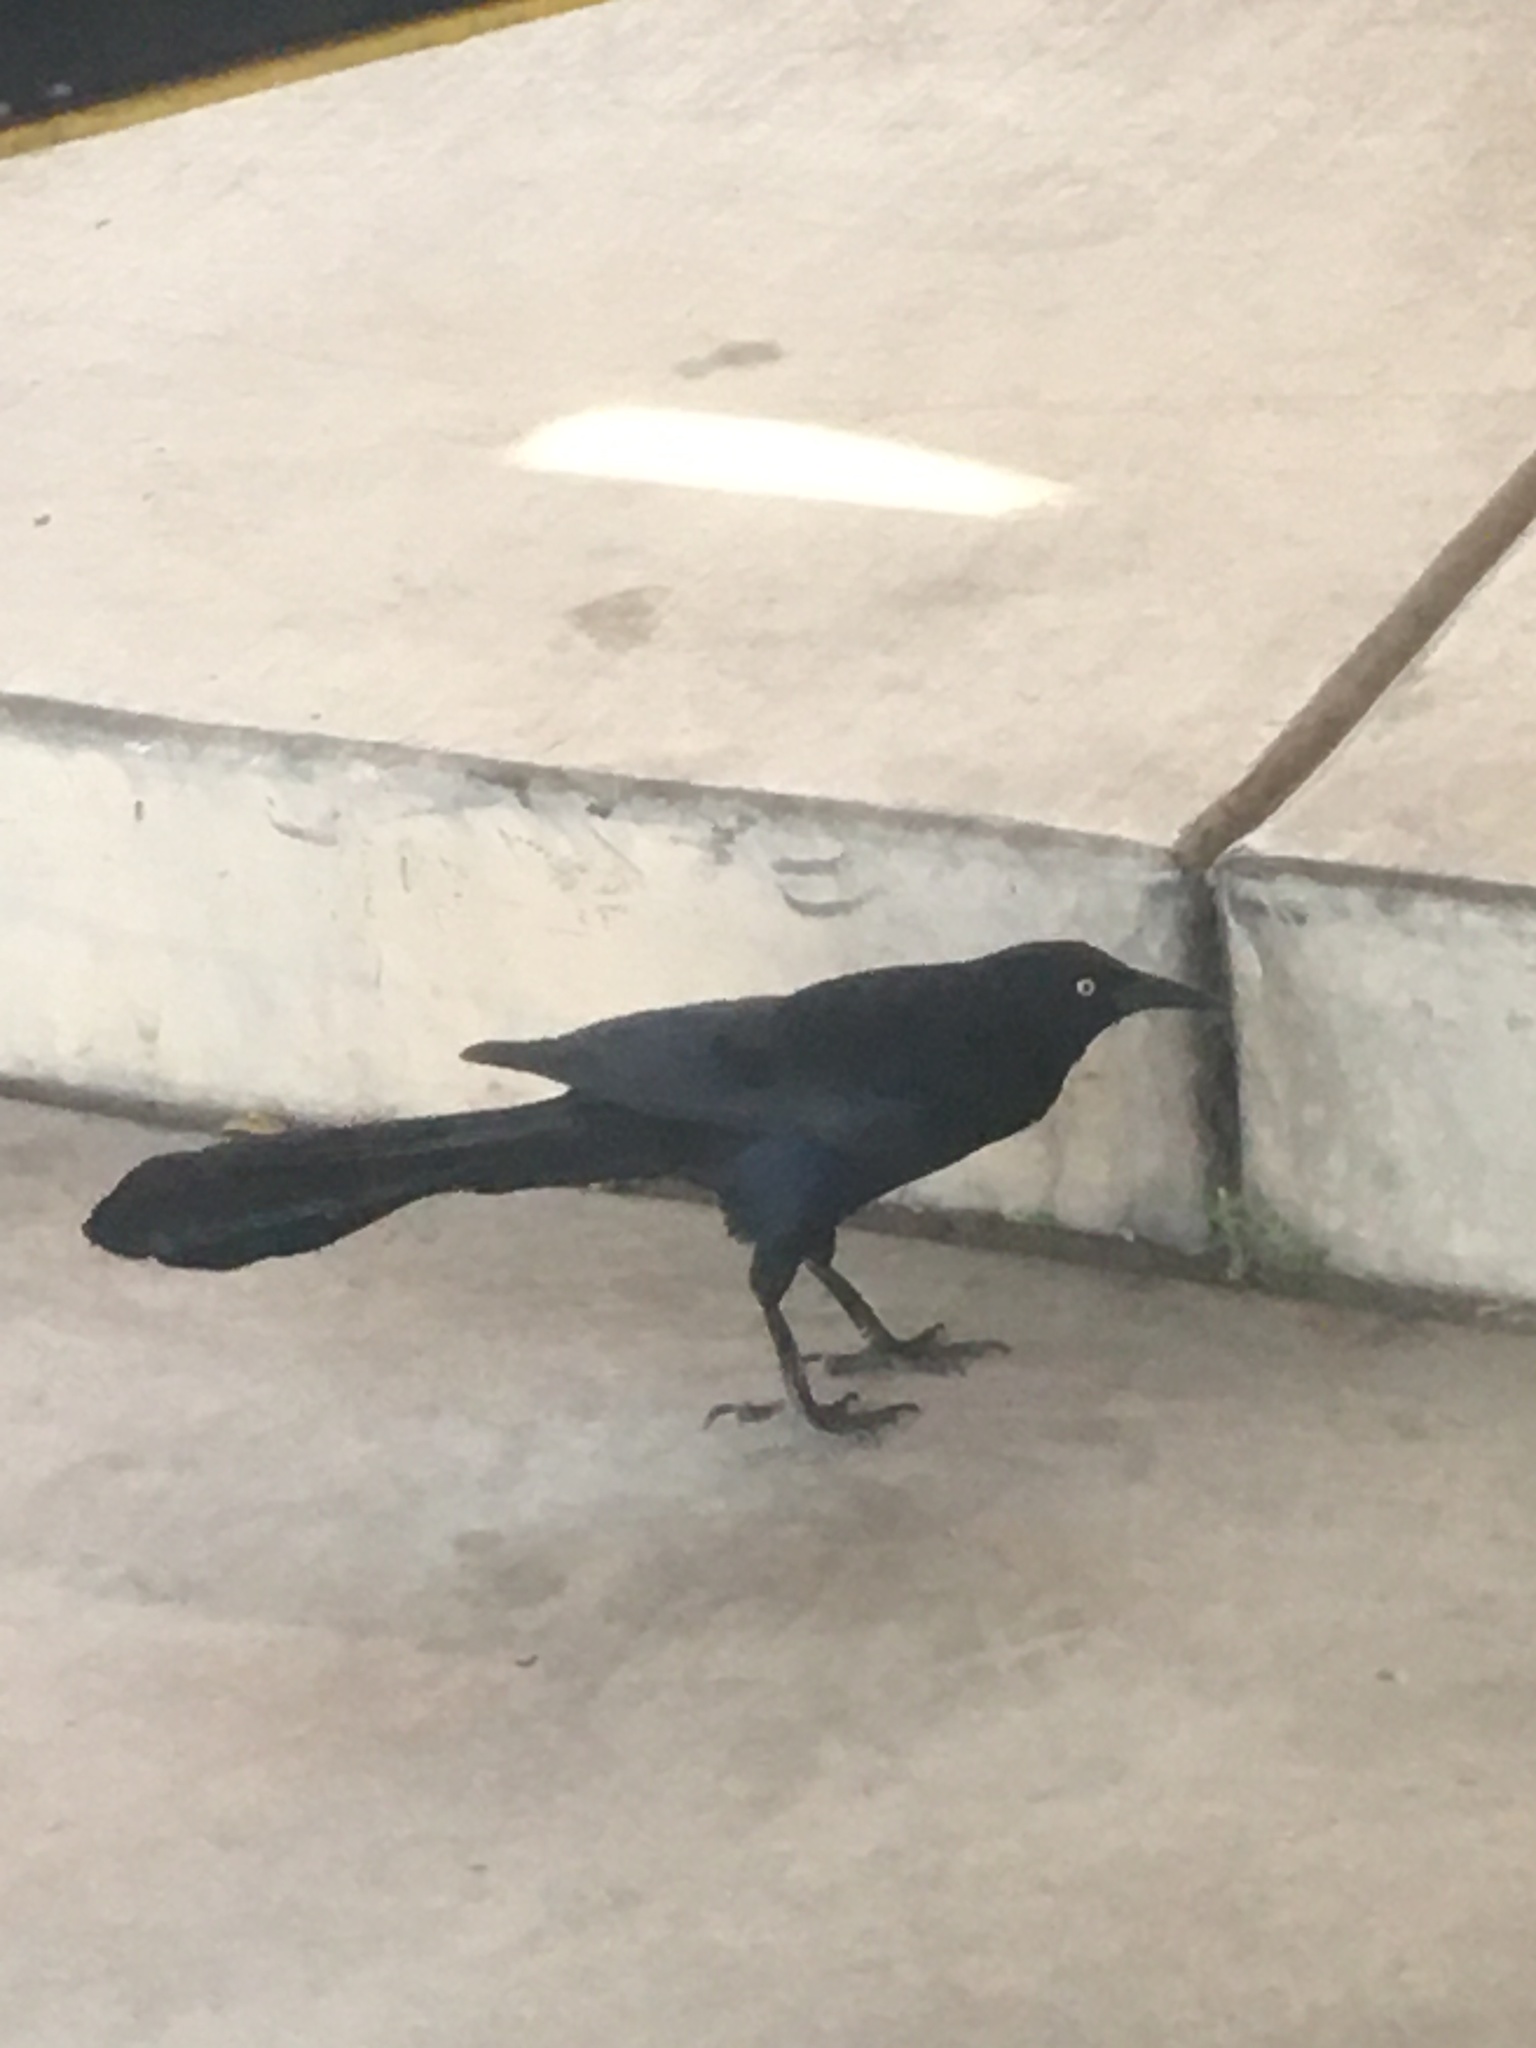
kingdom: Animalia
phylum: Chordata
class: Aves
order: Passeriformes
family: Icteridae
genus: Quiscalus
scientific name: Quiscalus mexicanus
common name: Great-tailed grackle
